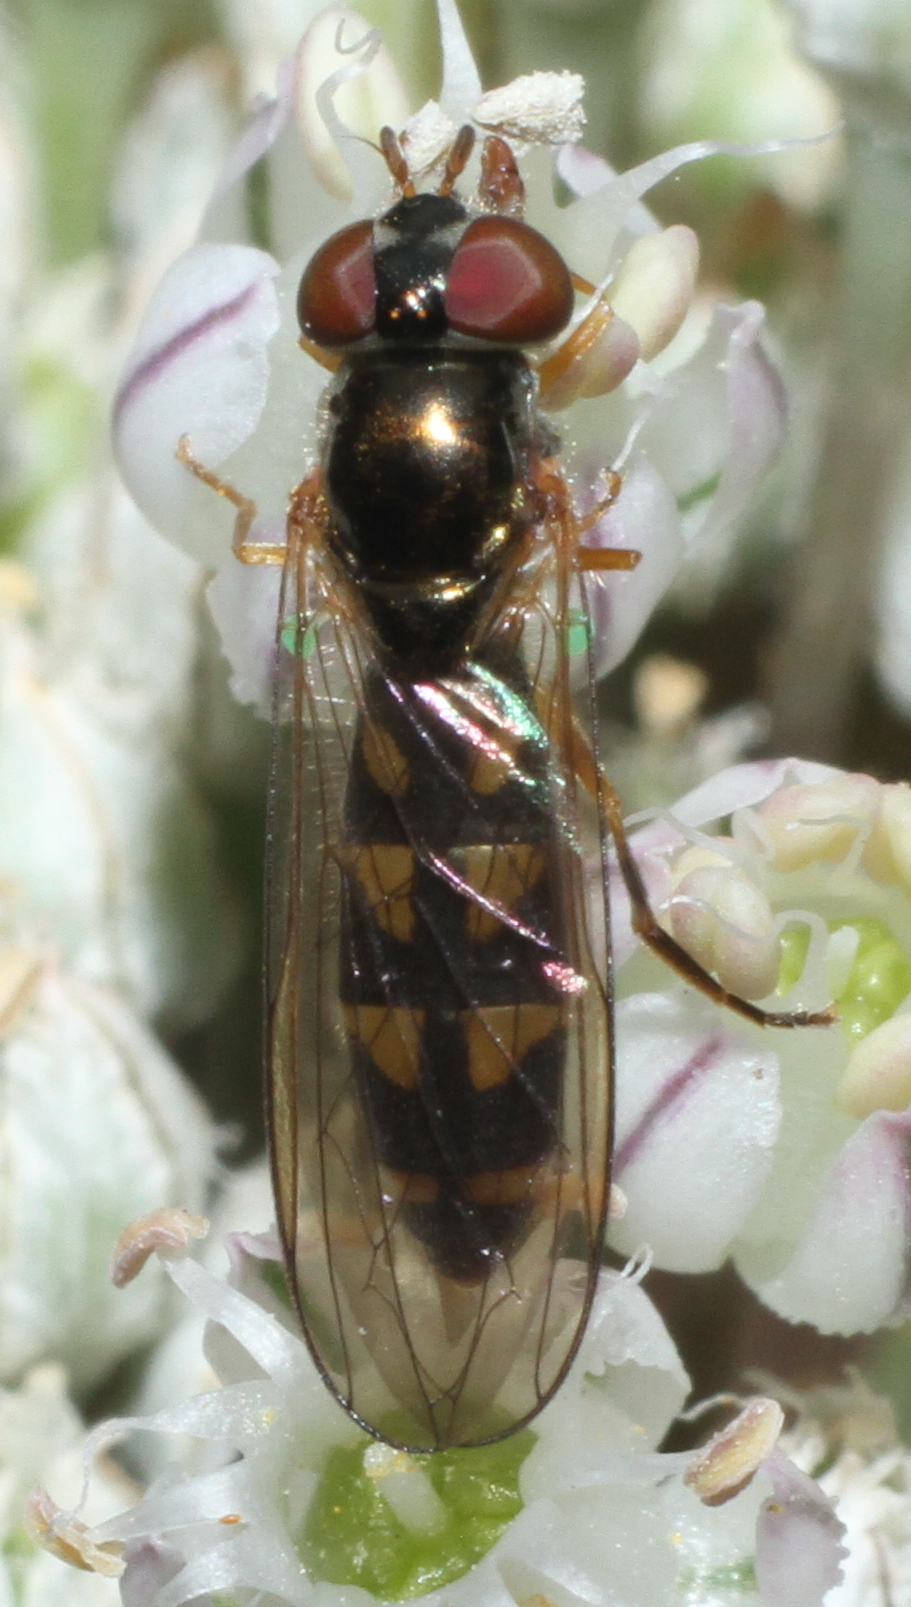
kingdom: Animalia
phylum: Arthropoda
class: Insecta
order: Diptera
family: Syrphidae
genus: Melanostoma
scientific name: Melanostoma scalare
